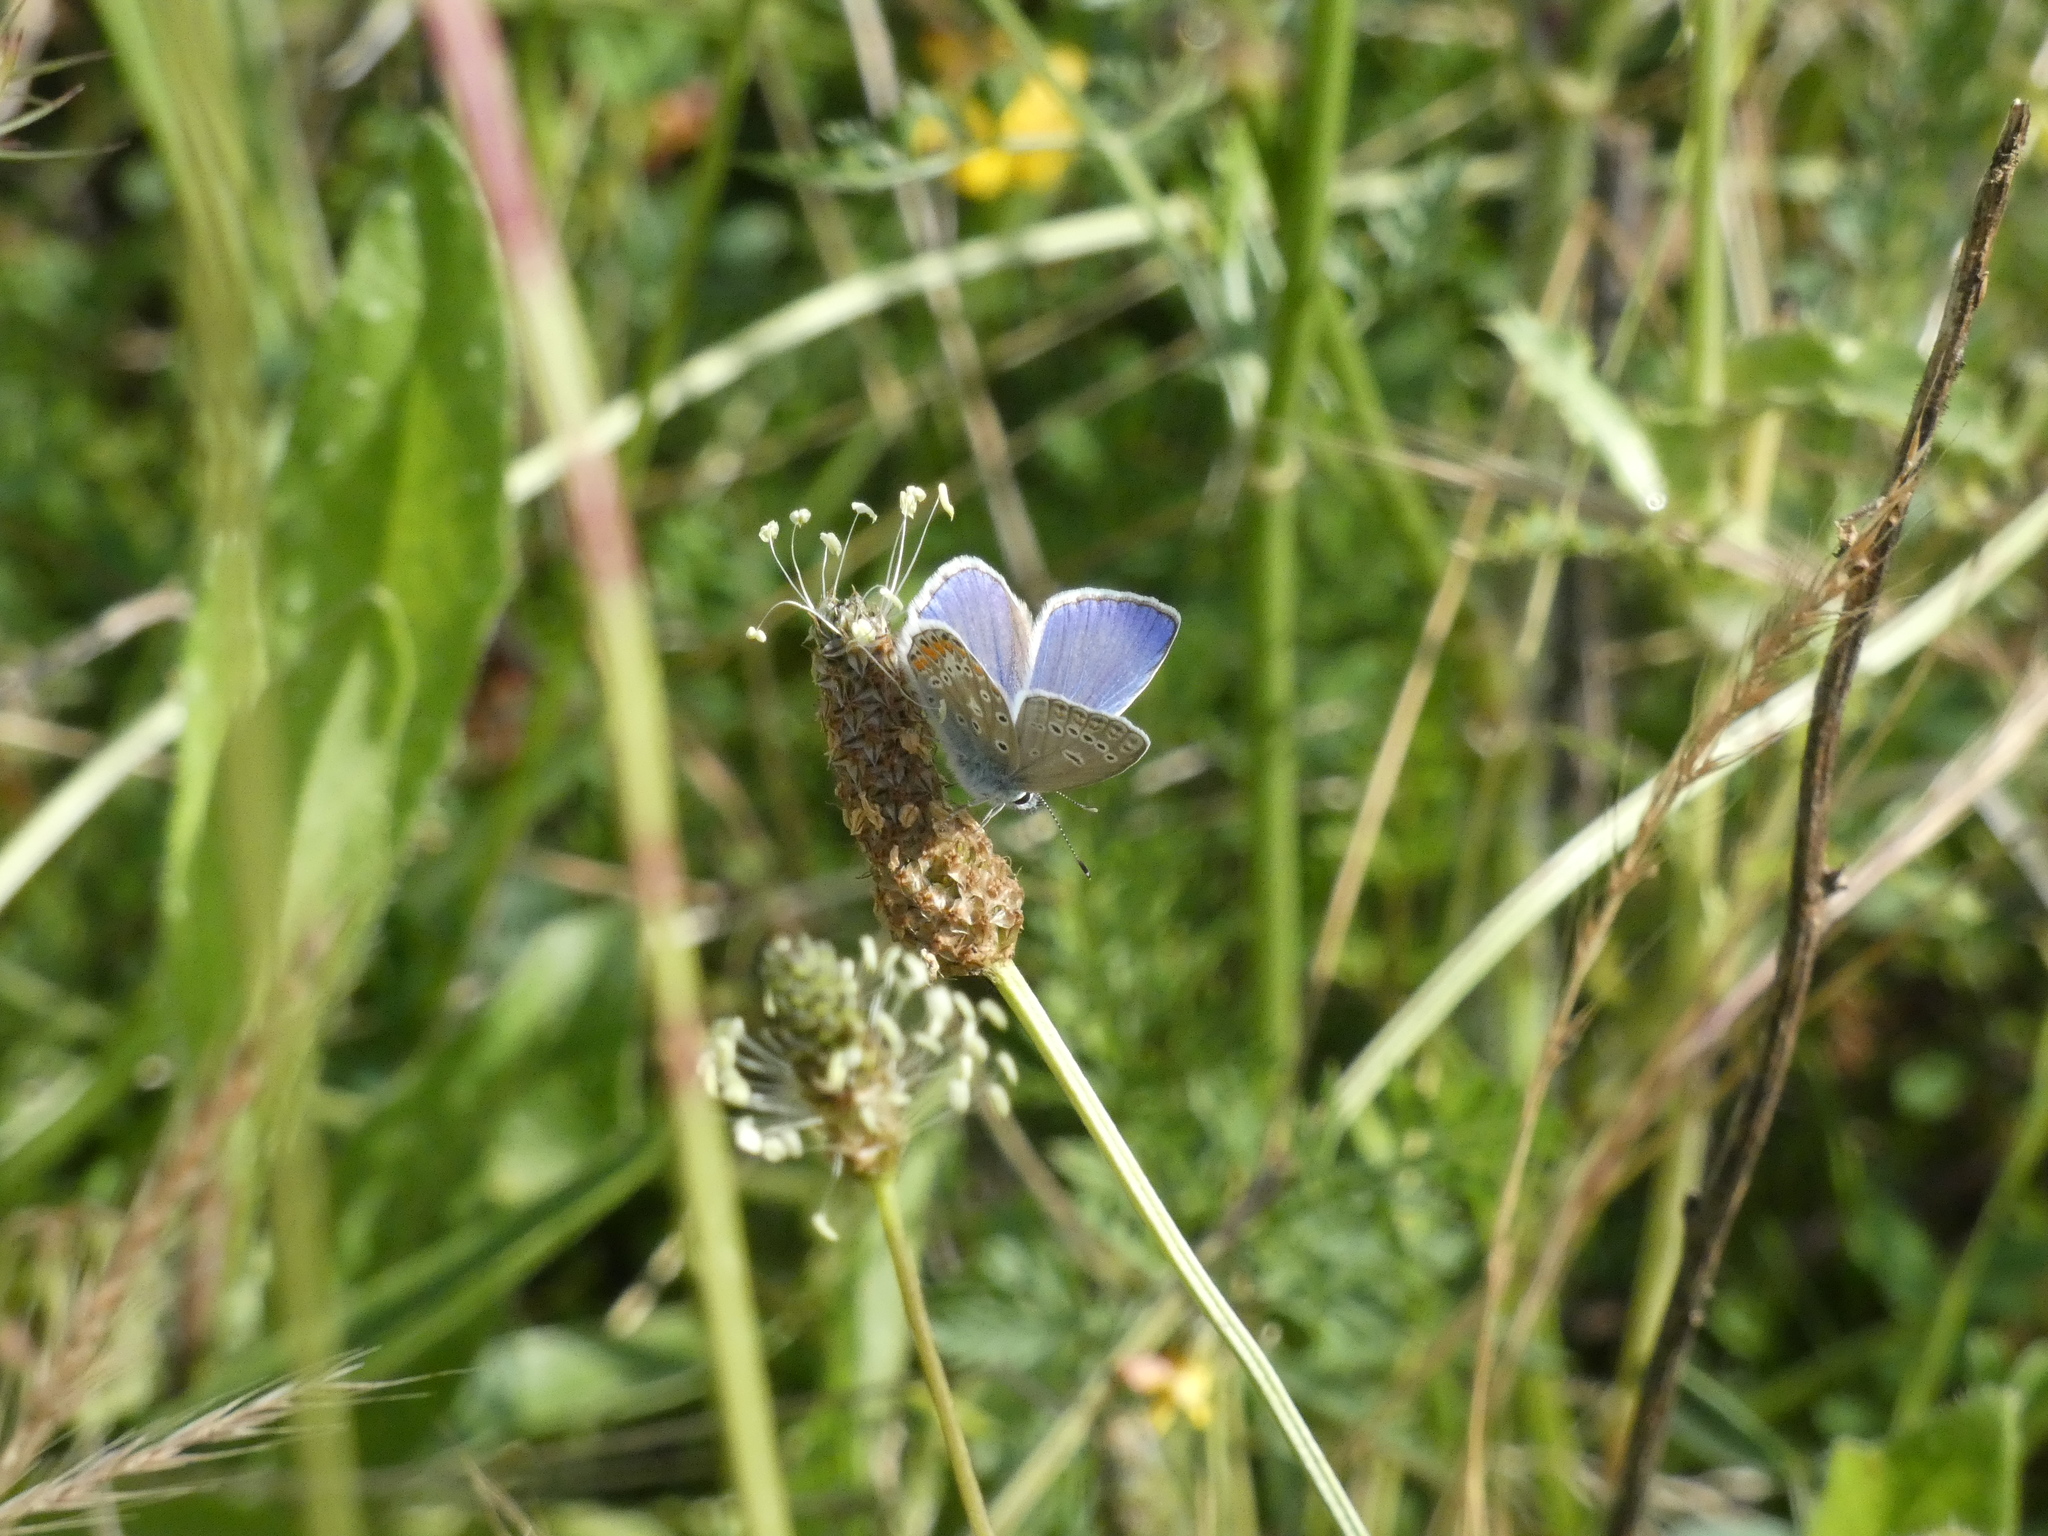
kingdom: Animalia
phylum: Arthropoda
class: Insecta
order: Lepidoptera
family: Lycaenidae
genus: Polyommatus
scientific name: Polyommatus icarus
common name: Common blue
